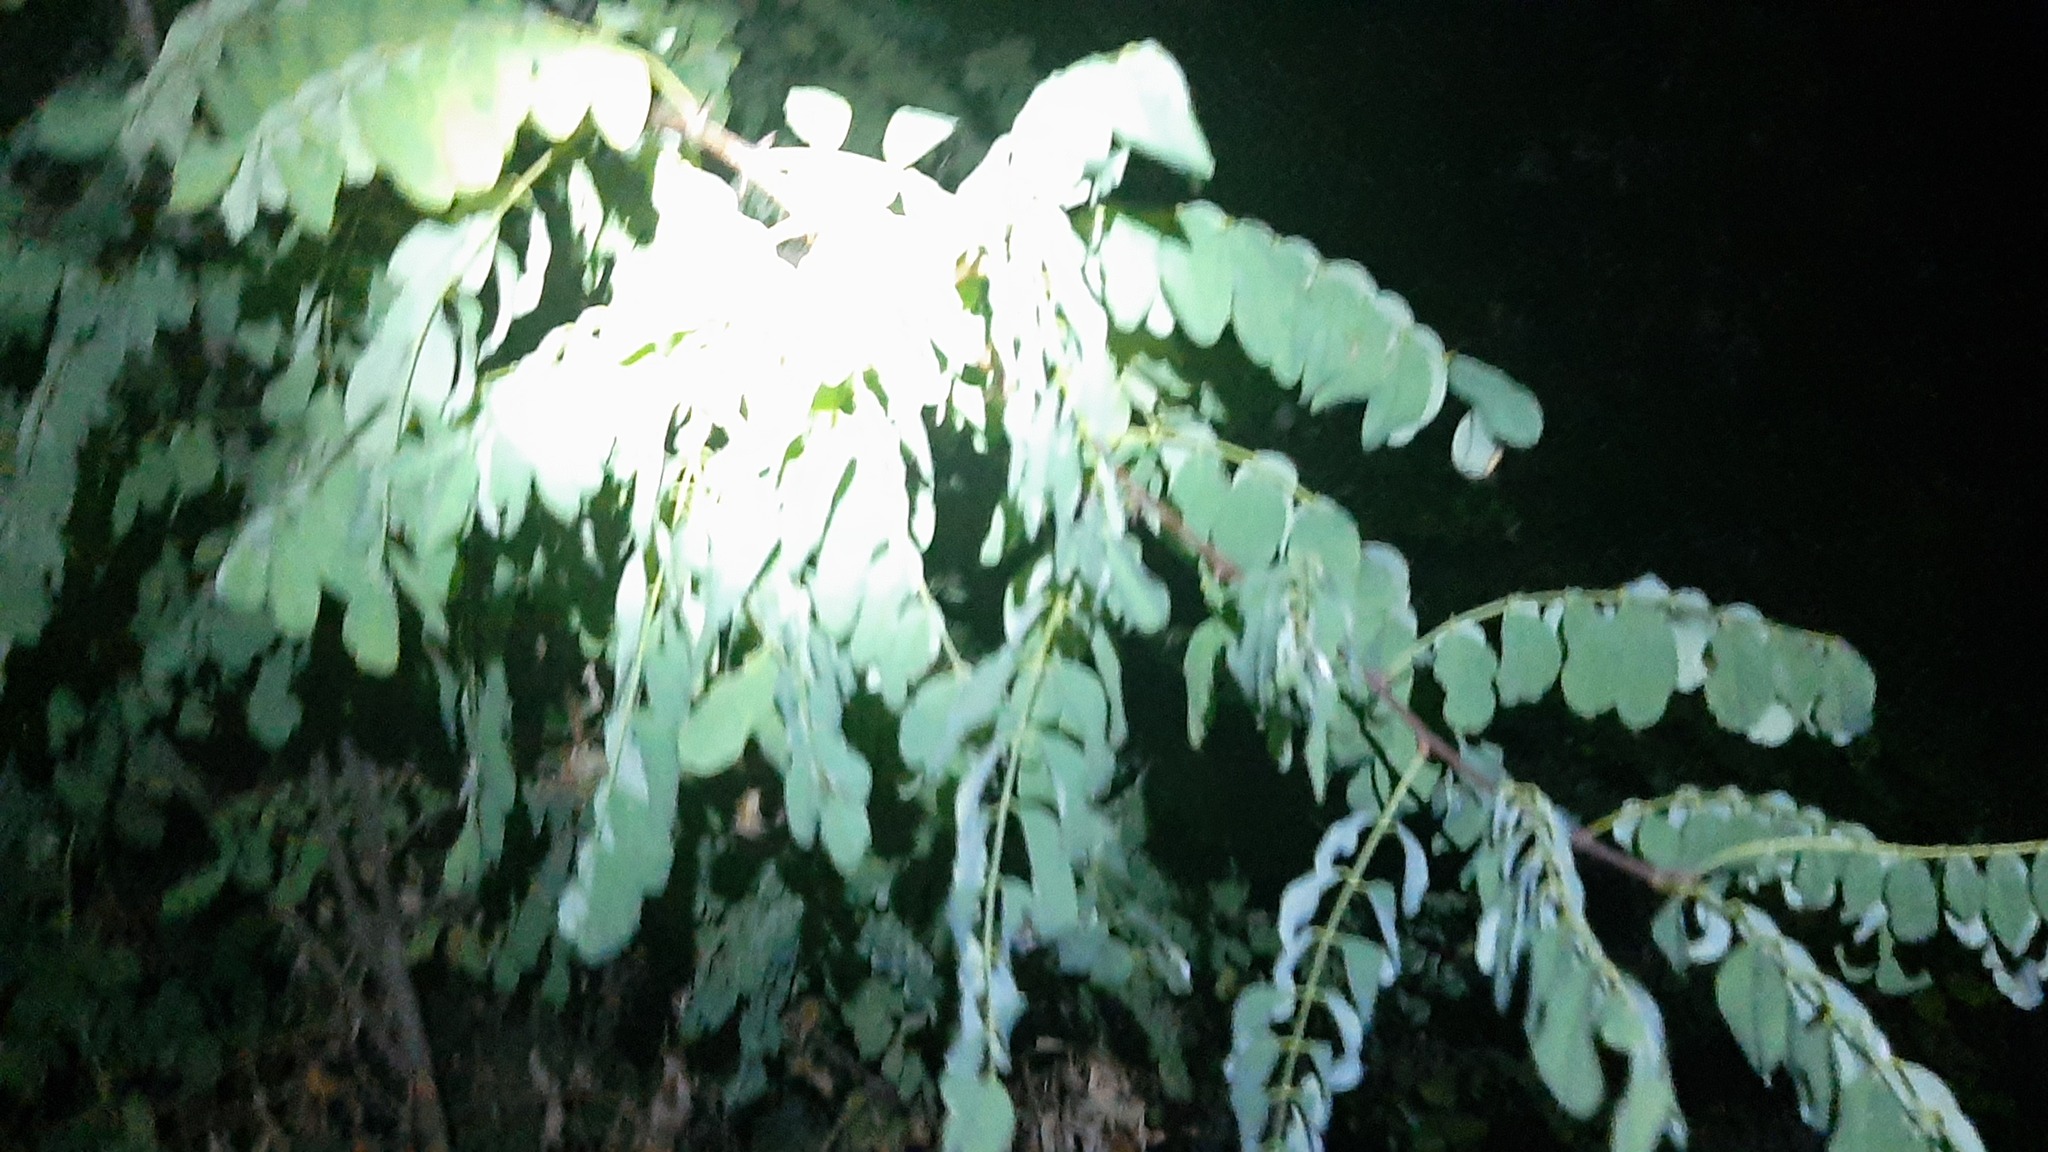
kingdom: Plantae
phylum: Tracheophyta
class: Magnoliopsida
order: Fabales
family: Fabaceae
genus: Robinia
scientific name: Robinia pseudoacacia
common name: Black locust
